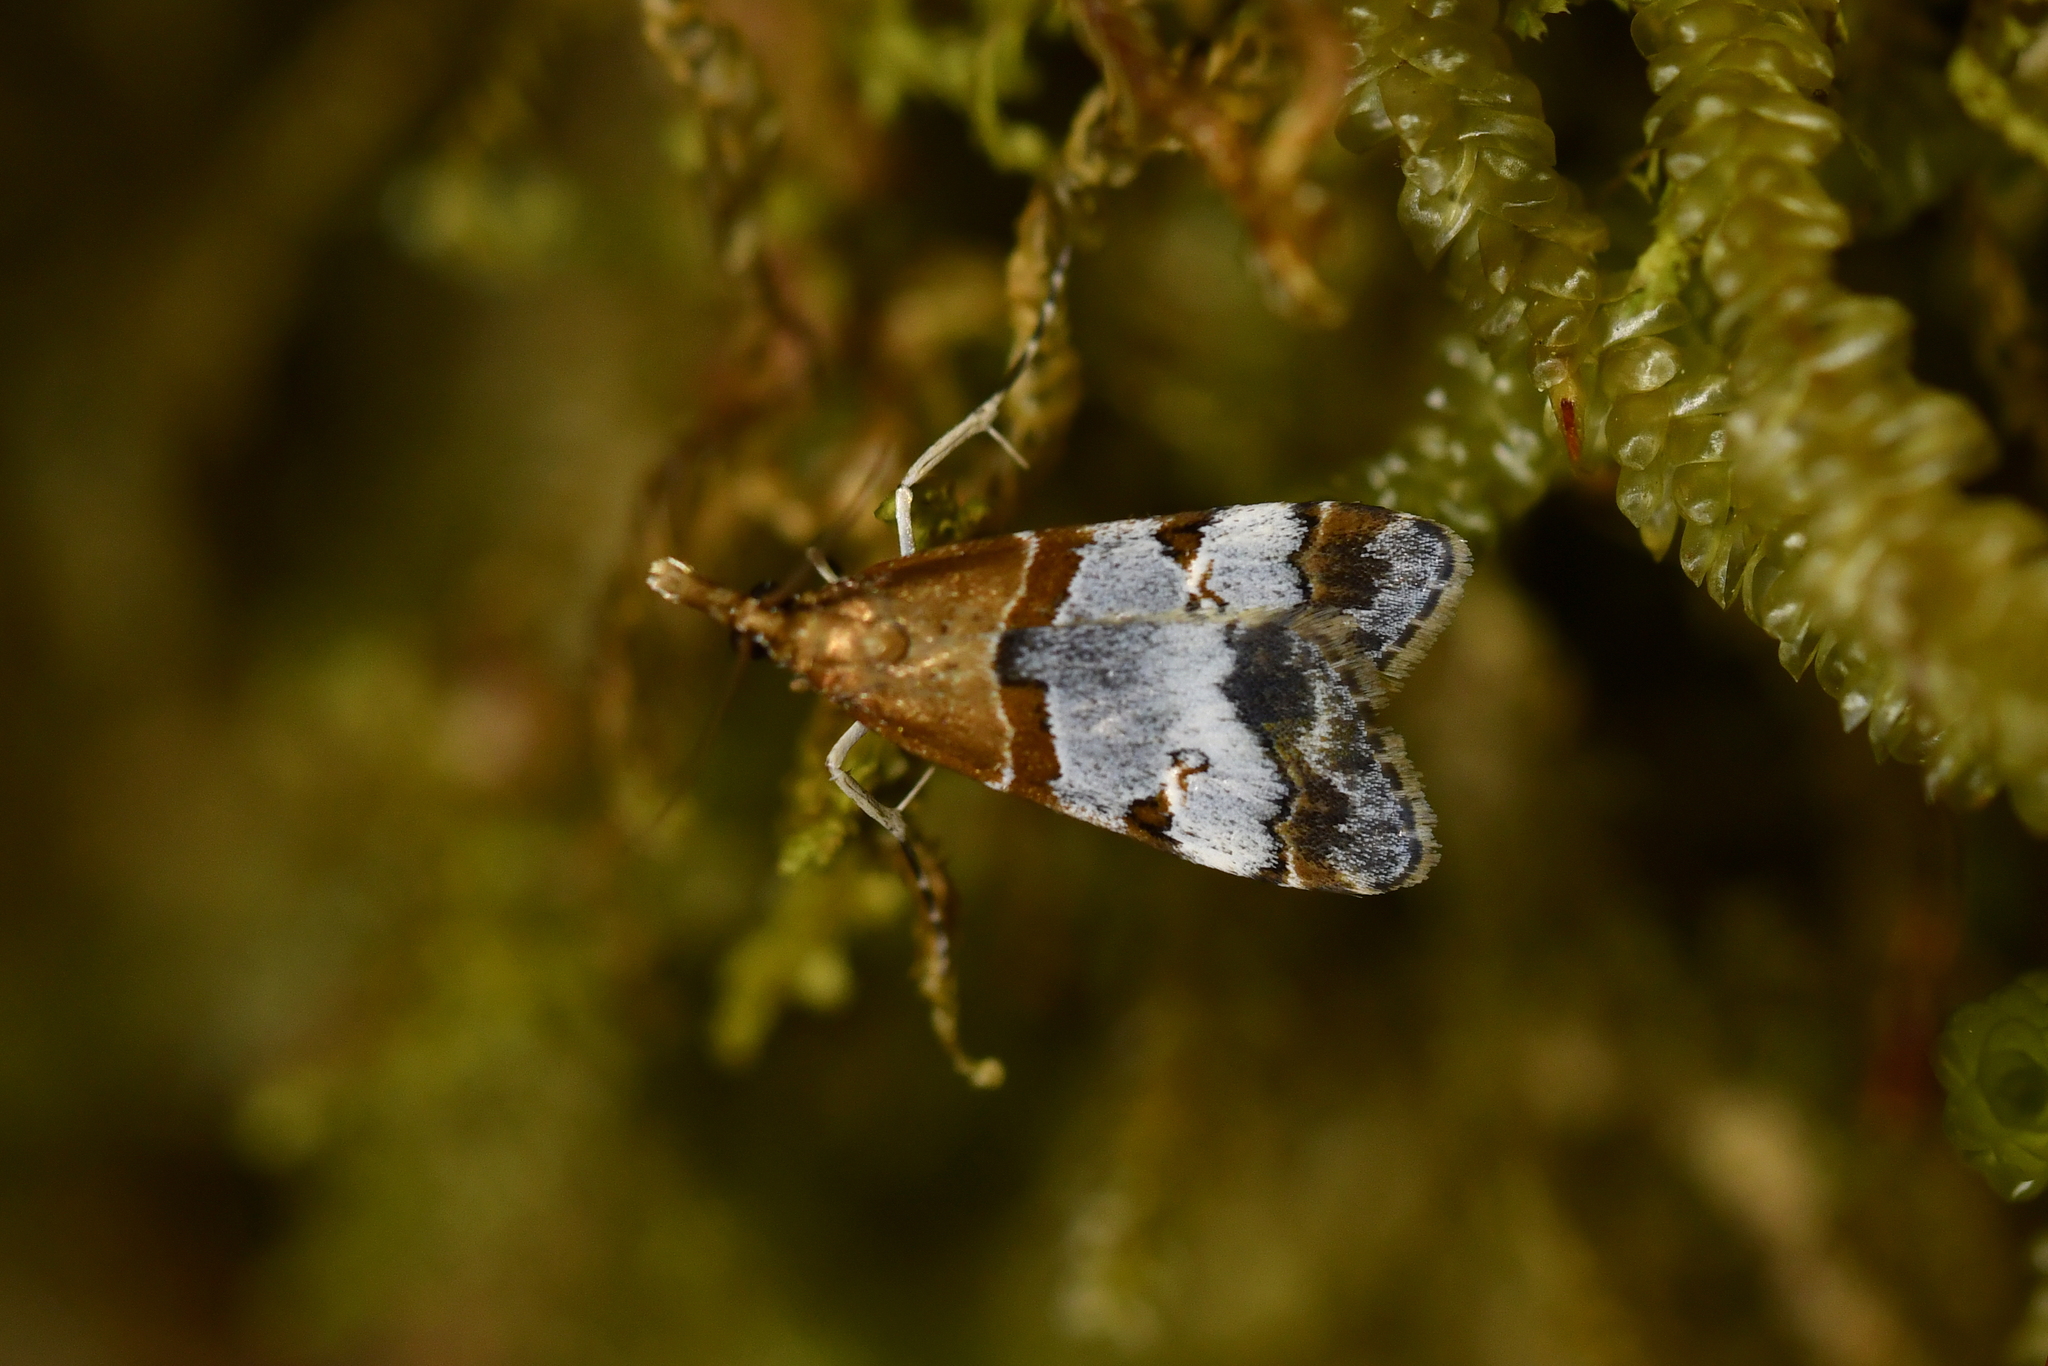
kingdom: Animalia
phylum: Arthropoda
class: Insecta
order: Lepidoptera
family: Crambidae
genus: Antiscopa
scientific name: Antiscopa epicomia
